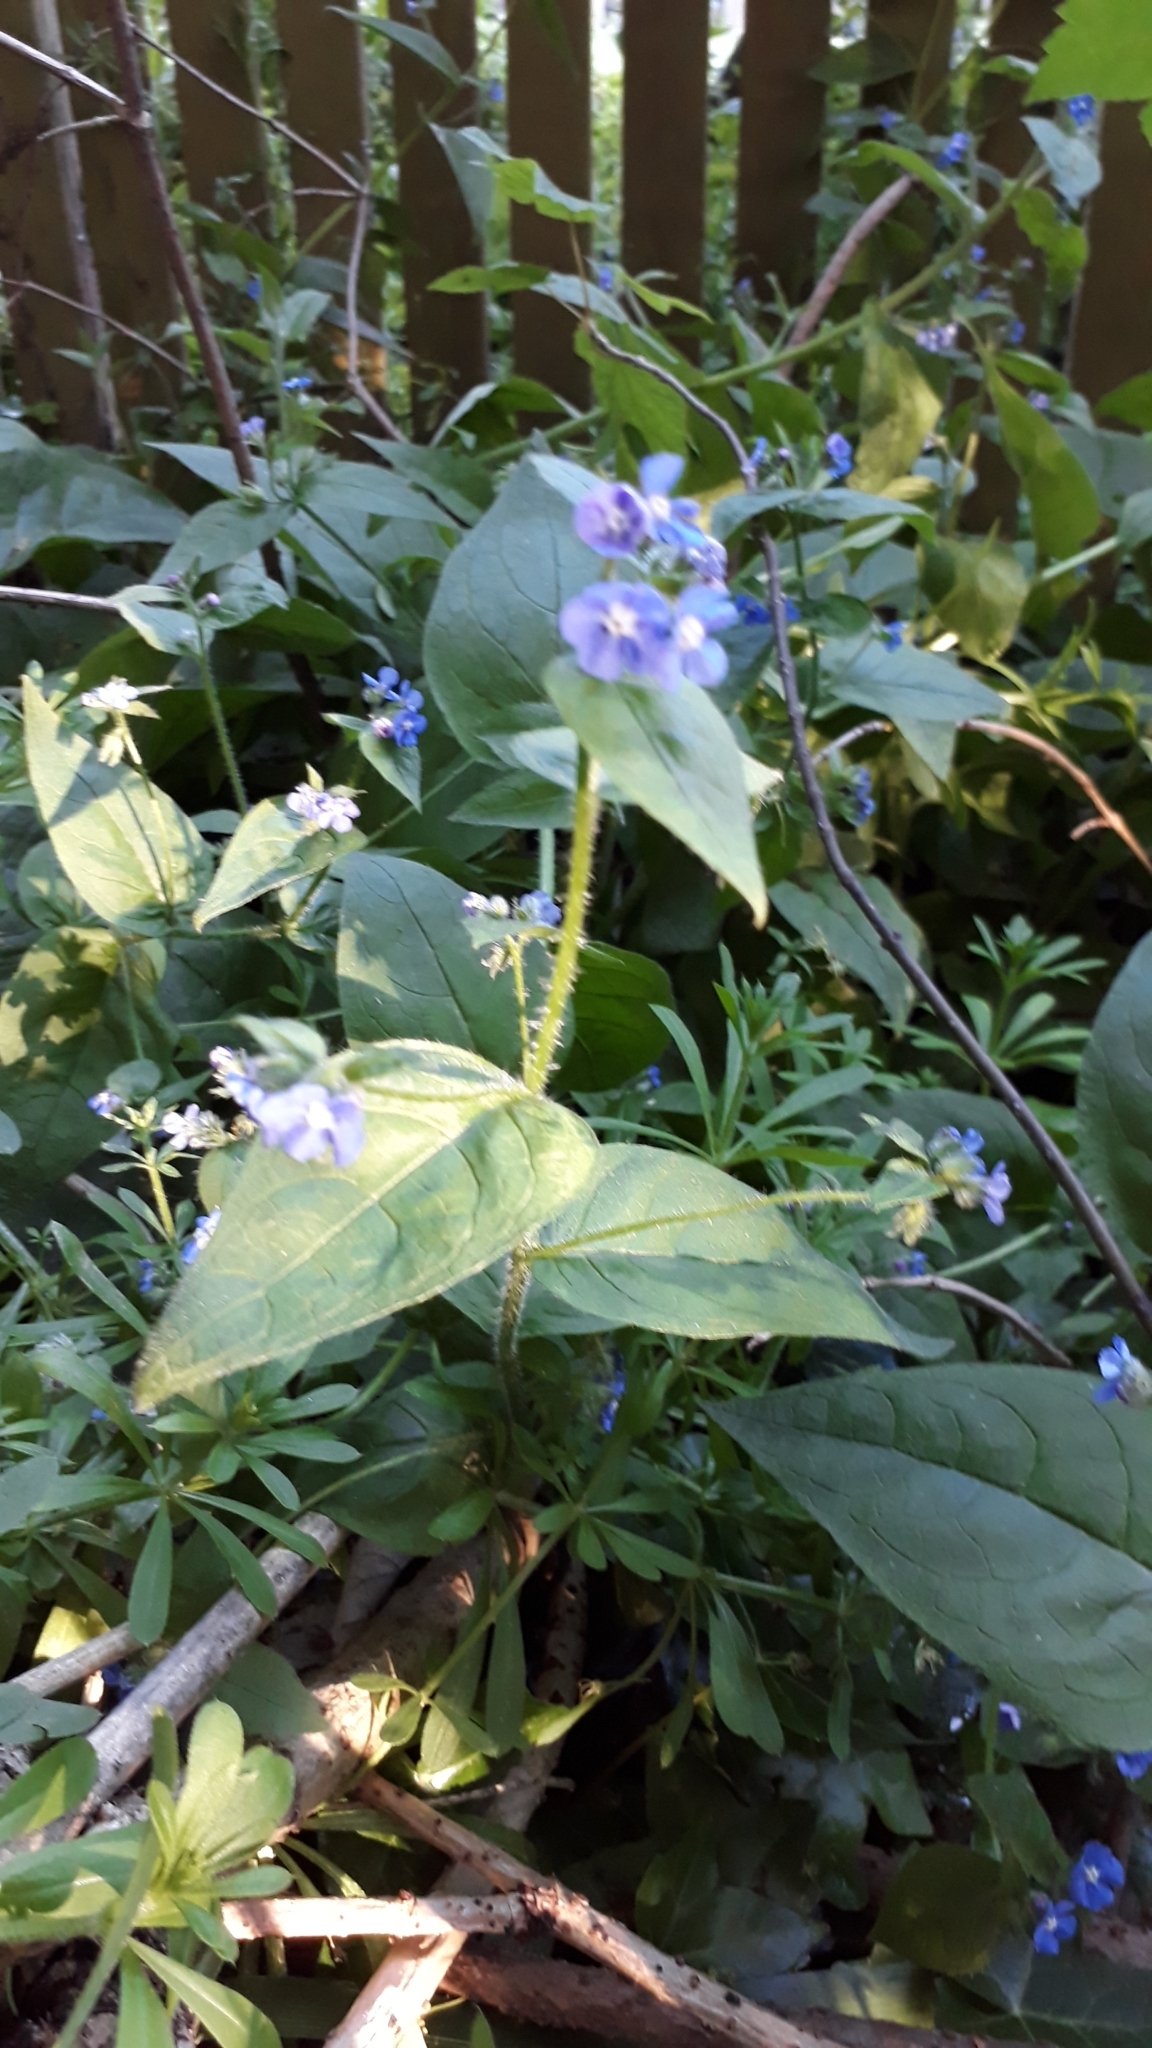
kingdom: Plantae
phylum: Tracheophyta
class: Magnoliopsida
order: Boraginales
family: Boraginaceae
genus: Pentaglottis
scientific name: Pentaglottis sempervirens
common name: Green alkanet
